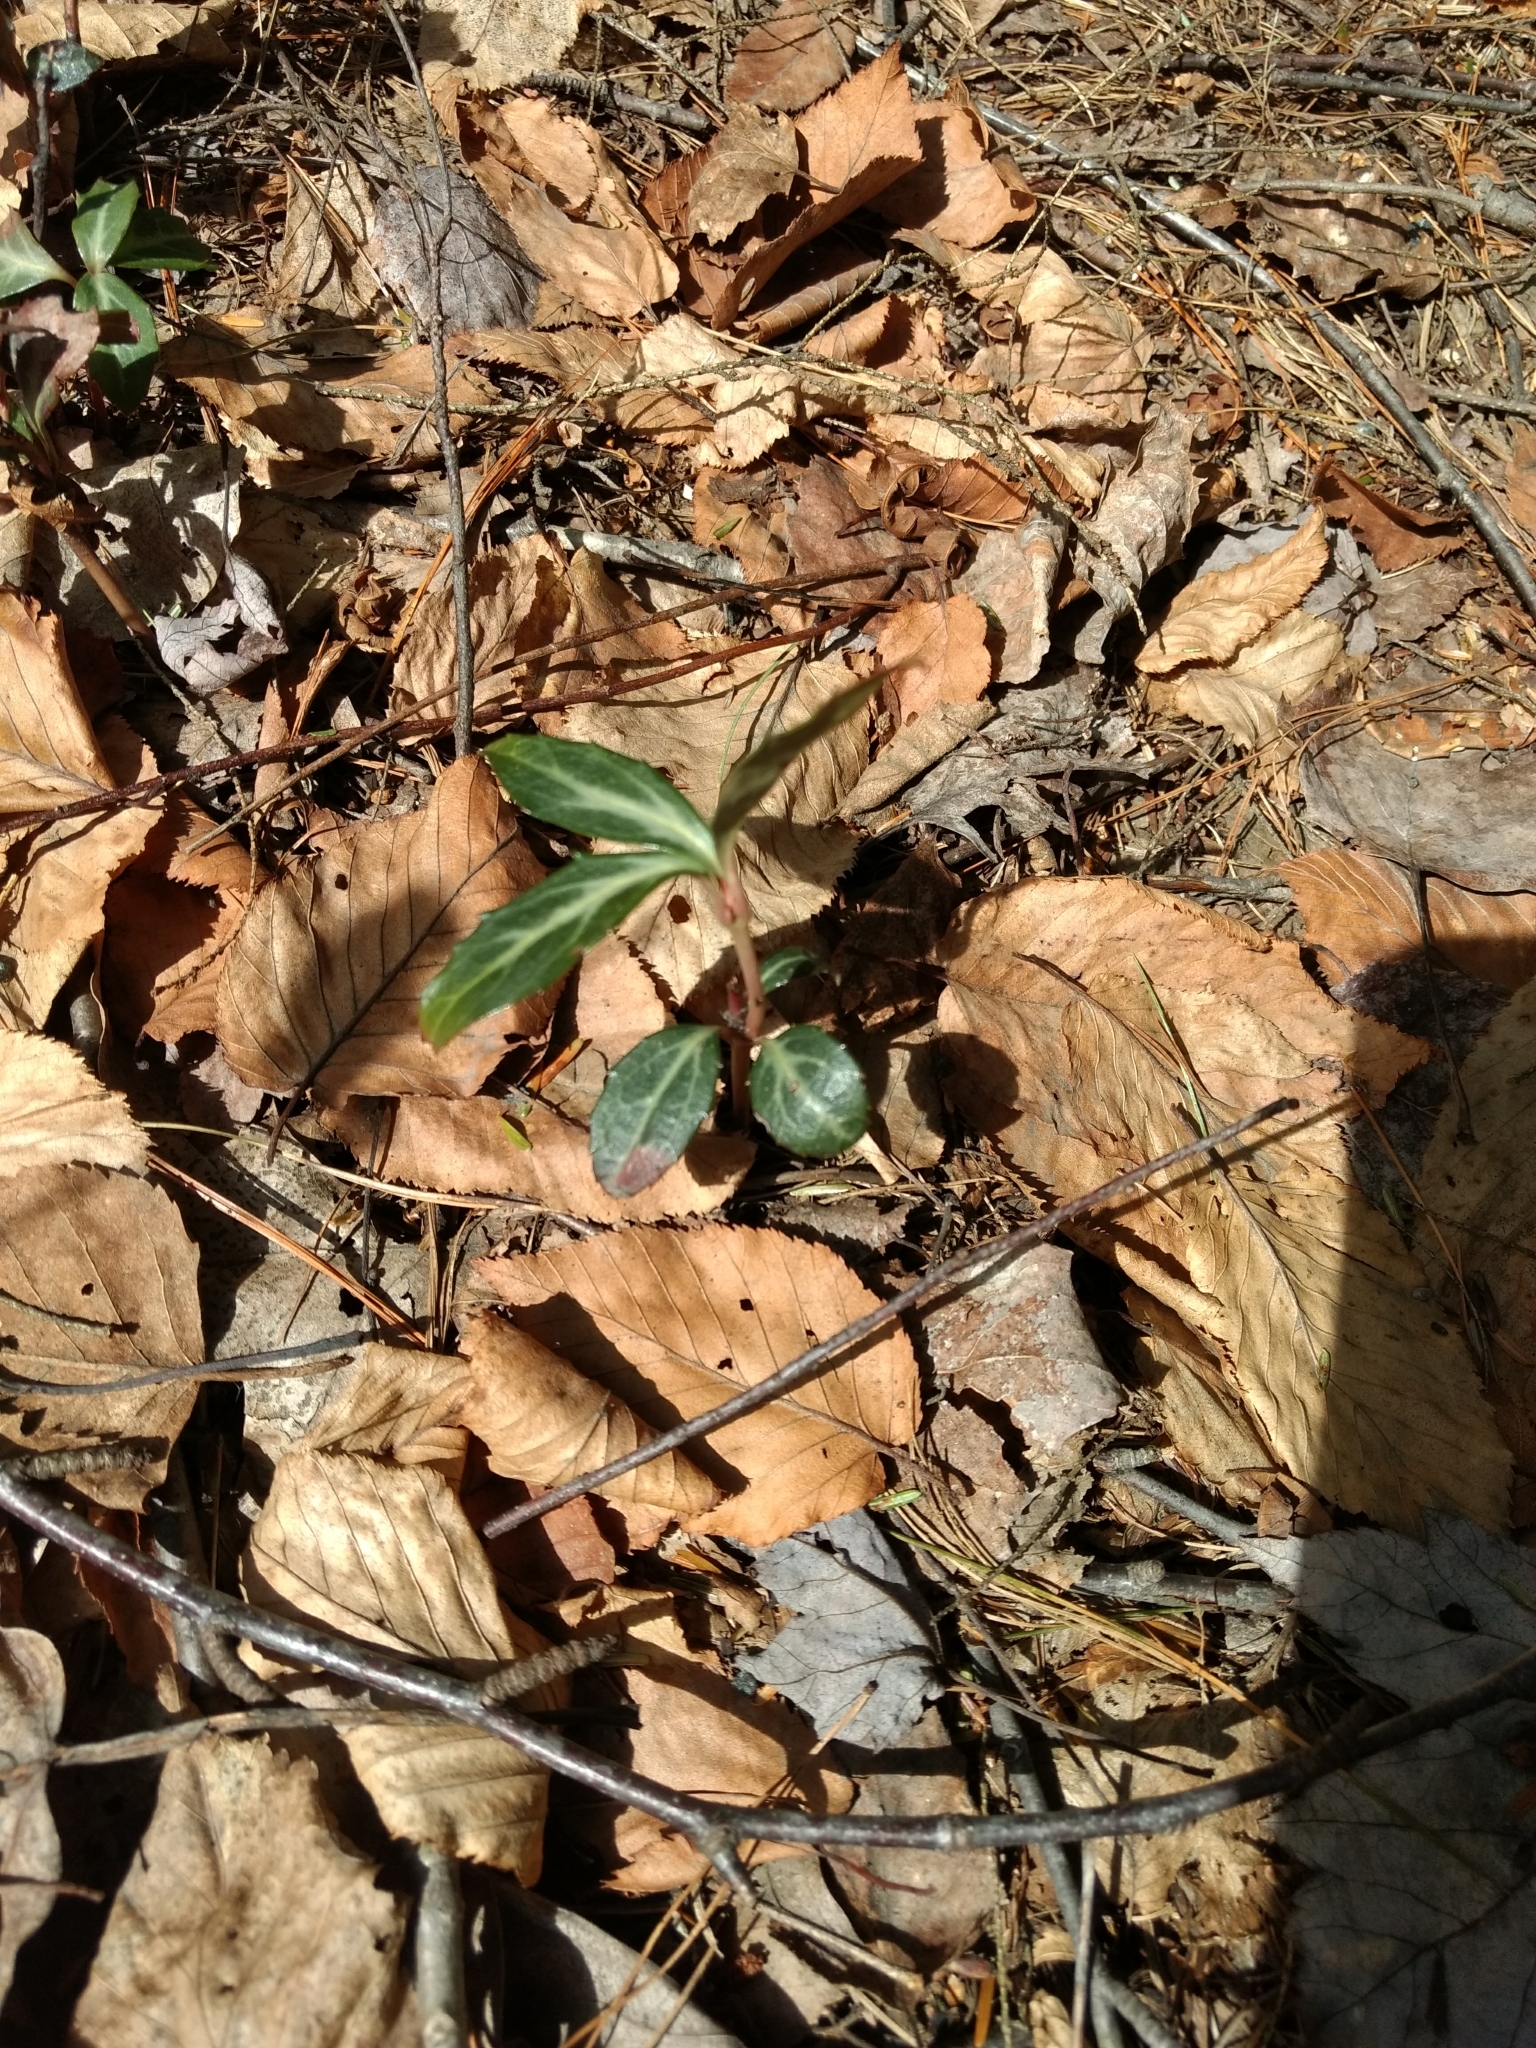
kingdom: Plantae
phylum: Tracheophyta
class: Magnoliopsida
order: Ericales
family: Ericaceae
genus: Chimaphila
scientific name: Chimaphila maculata
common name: Spotted pipsissewa
